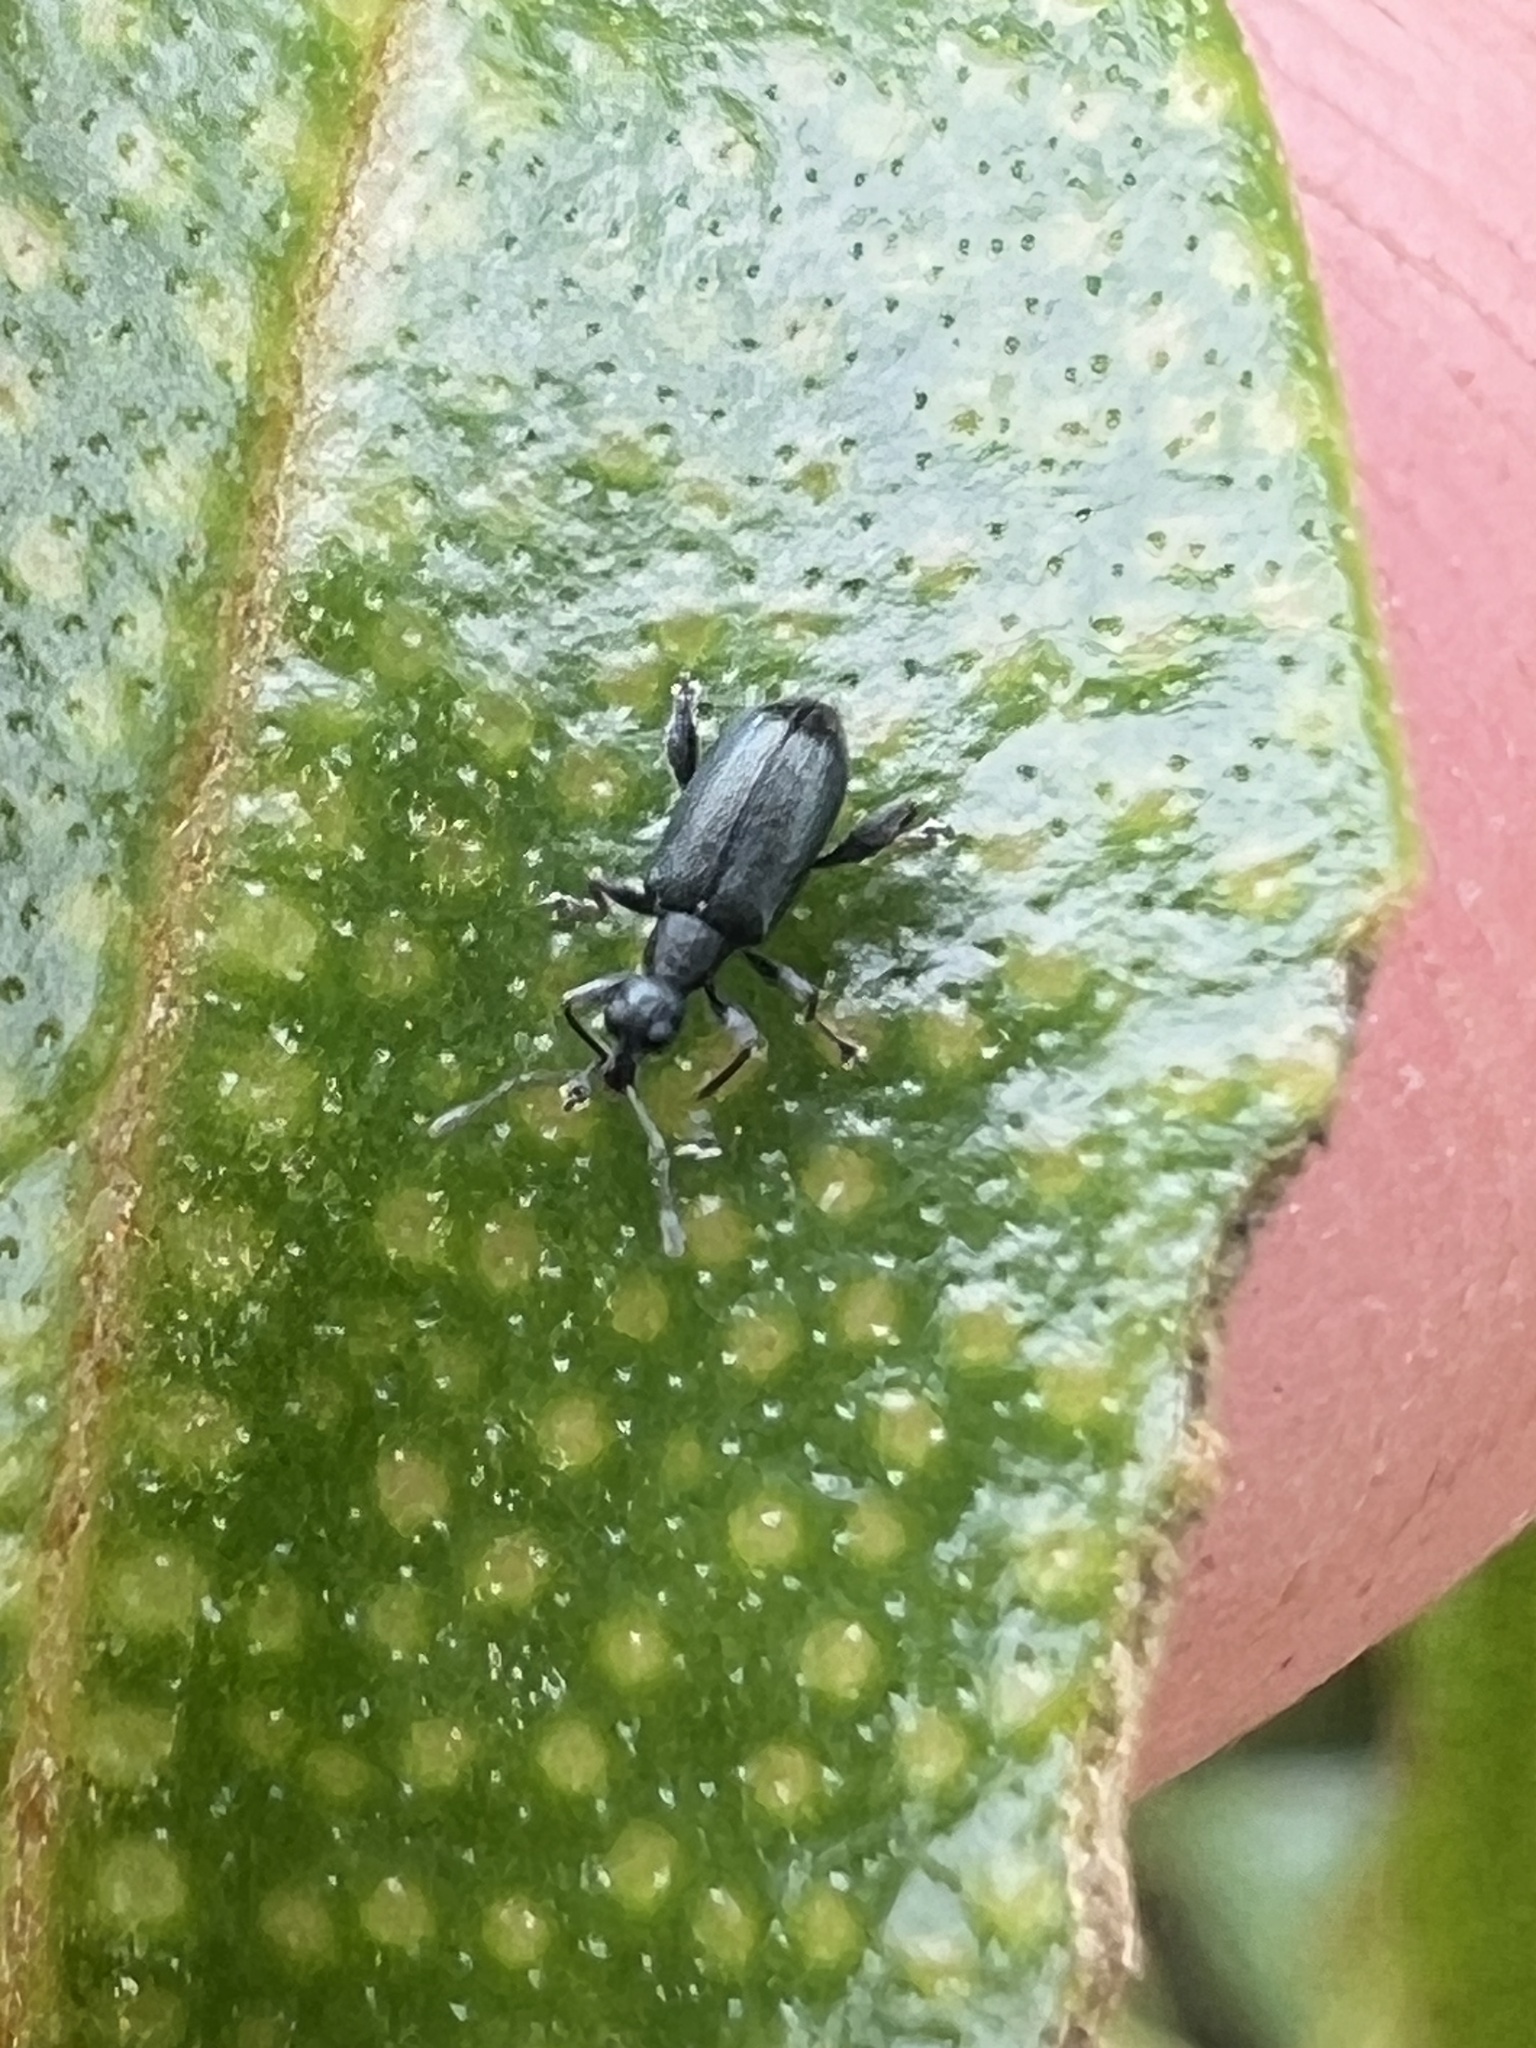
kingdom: Animalia
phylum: Arthropoda
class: Insecta
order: Coleoptera
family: Curculionidae
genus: Hoplocneme
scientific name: Hoplocneme punctatissima
